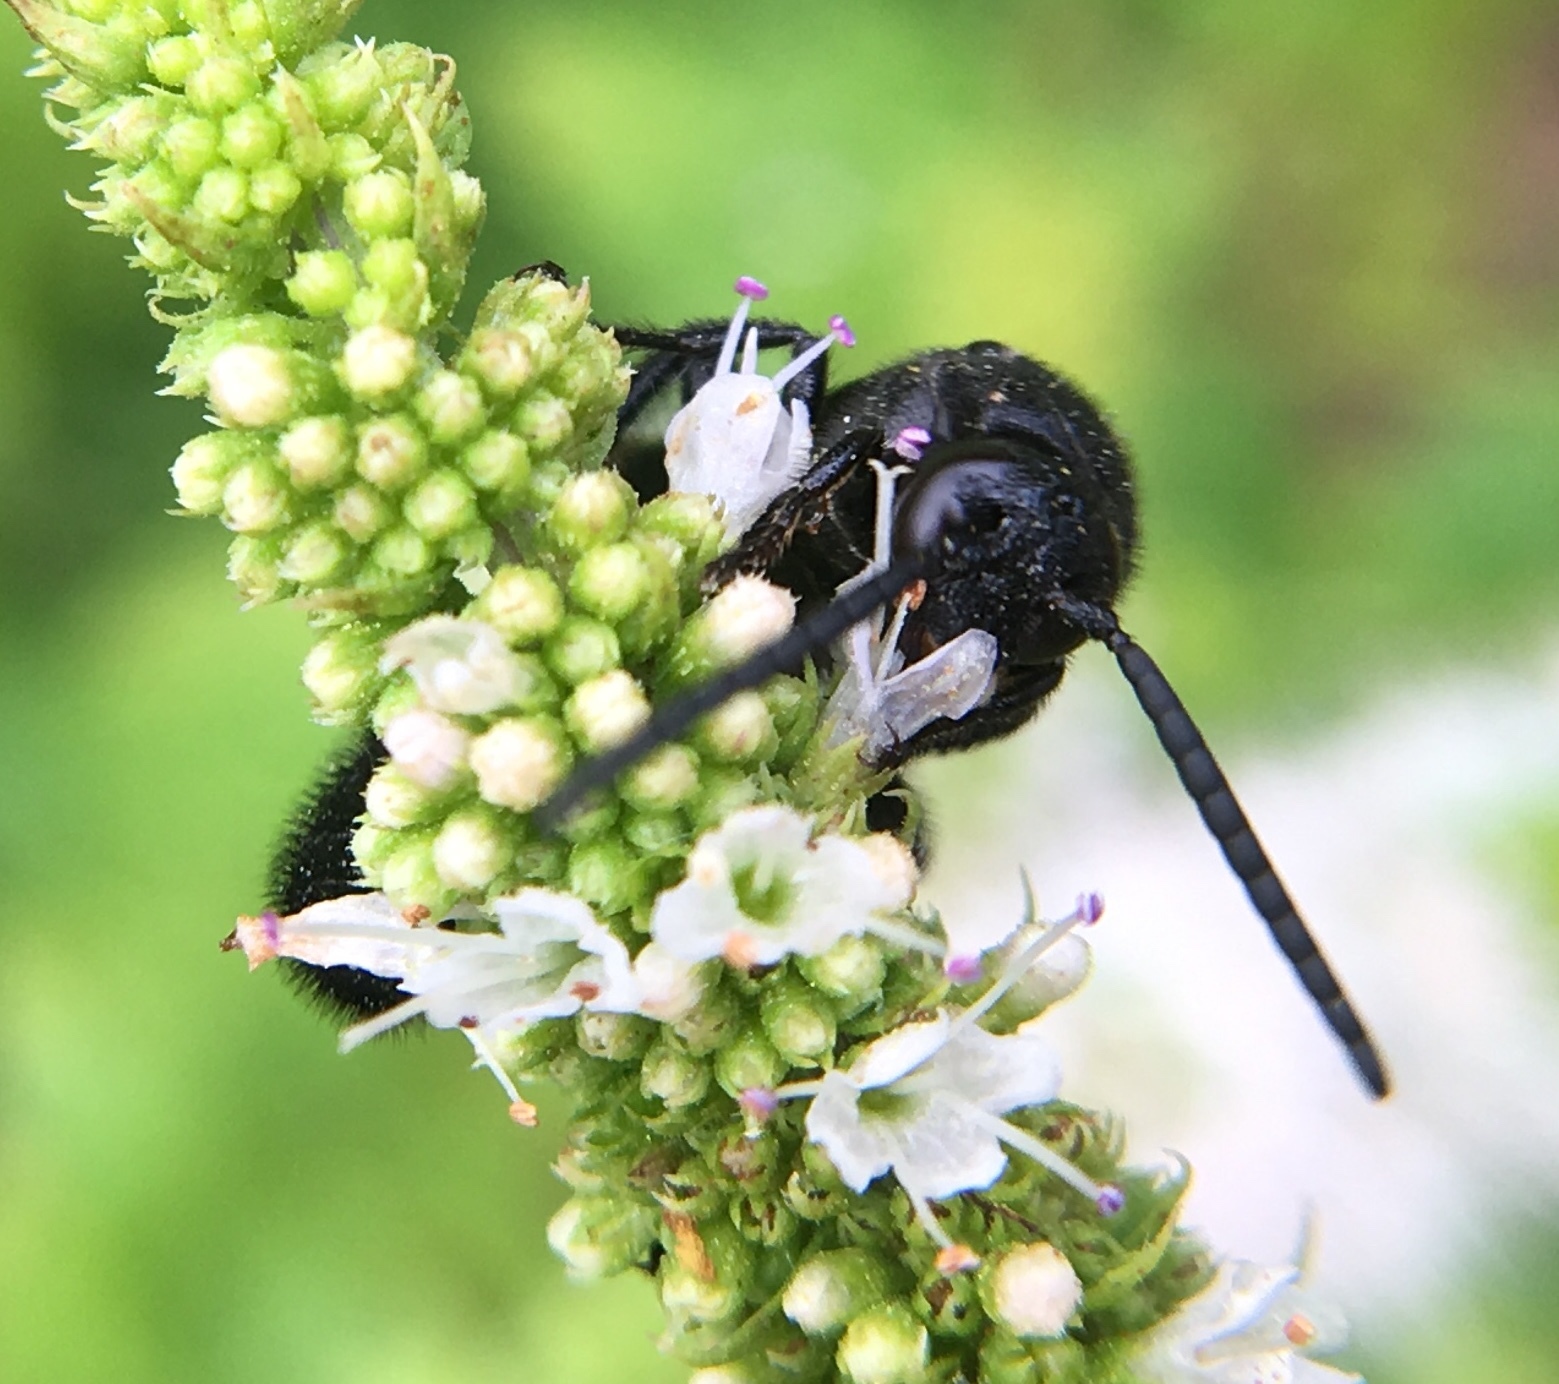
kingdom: Animalia
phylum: Arthropoda
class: Insecta
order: Hymenoptera
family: Scoliidae
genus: Scolia
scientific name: Scolia bicincta
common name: Double-banded scoliid wasp
